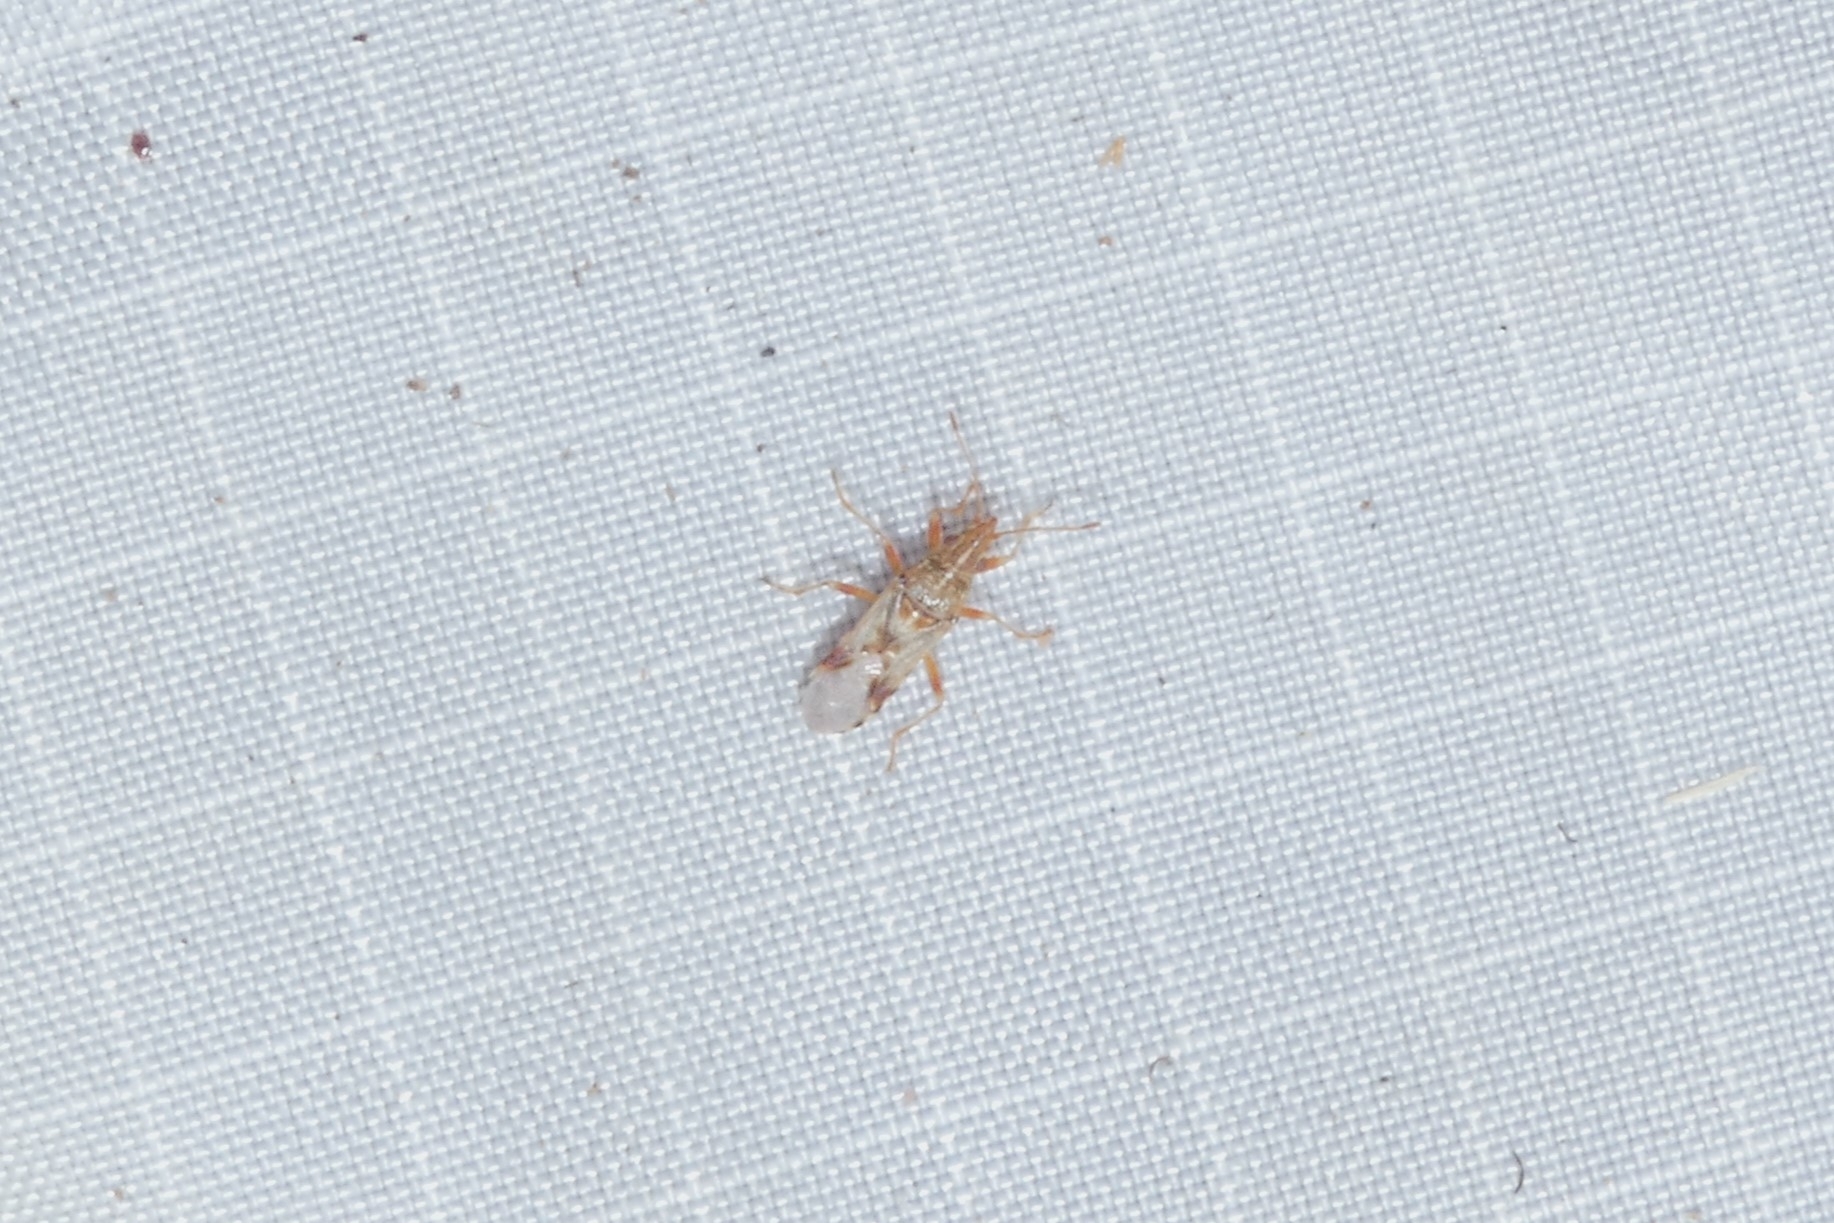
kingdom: Animalia
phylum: Arthropoda
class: Insecta
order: Hemiptera
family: Lygaeidae
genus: Belonochilus
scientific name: Belonochilus numenius
